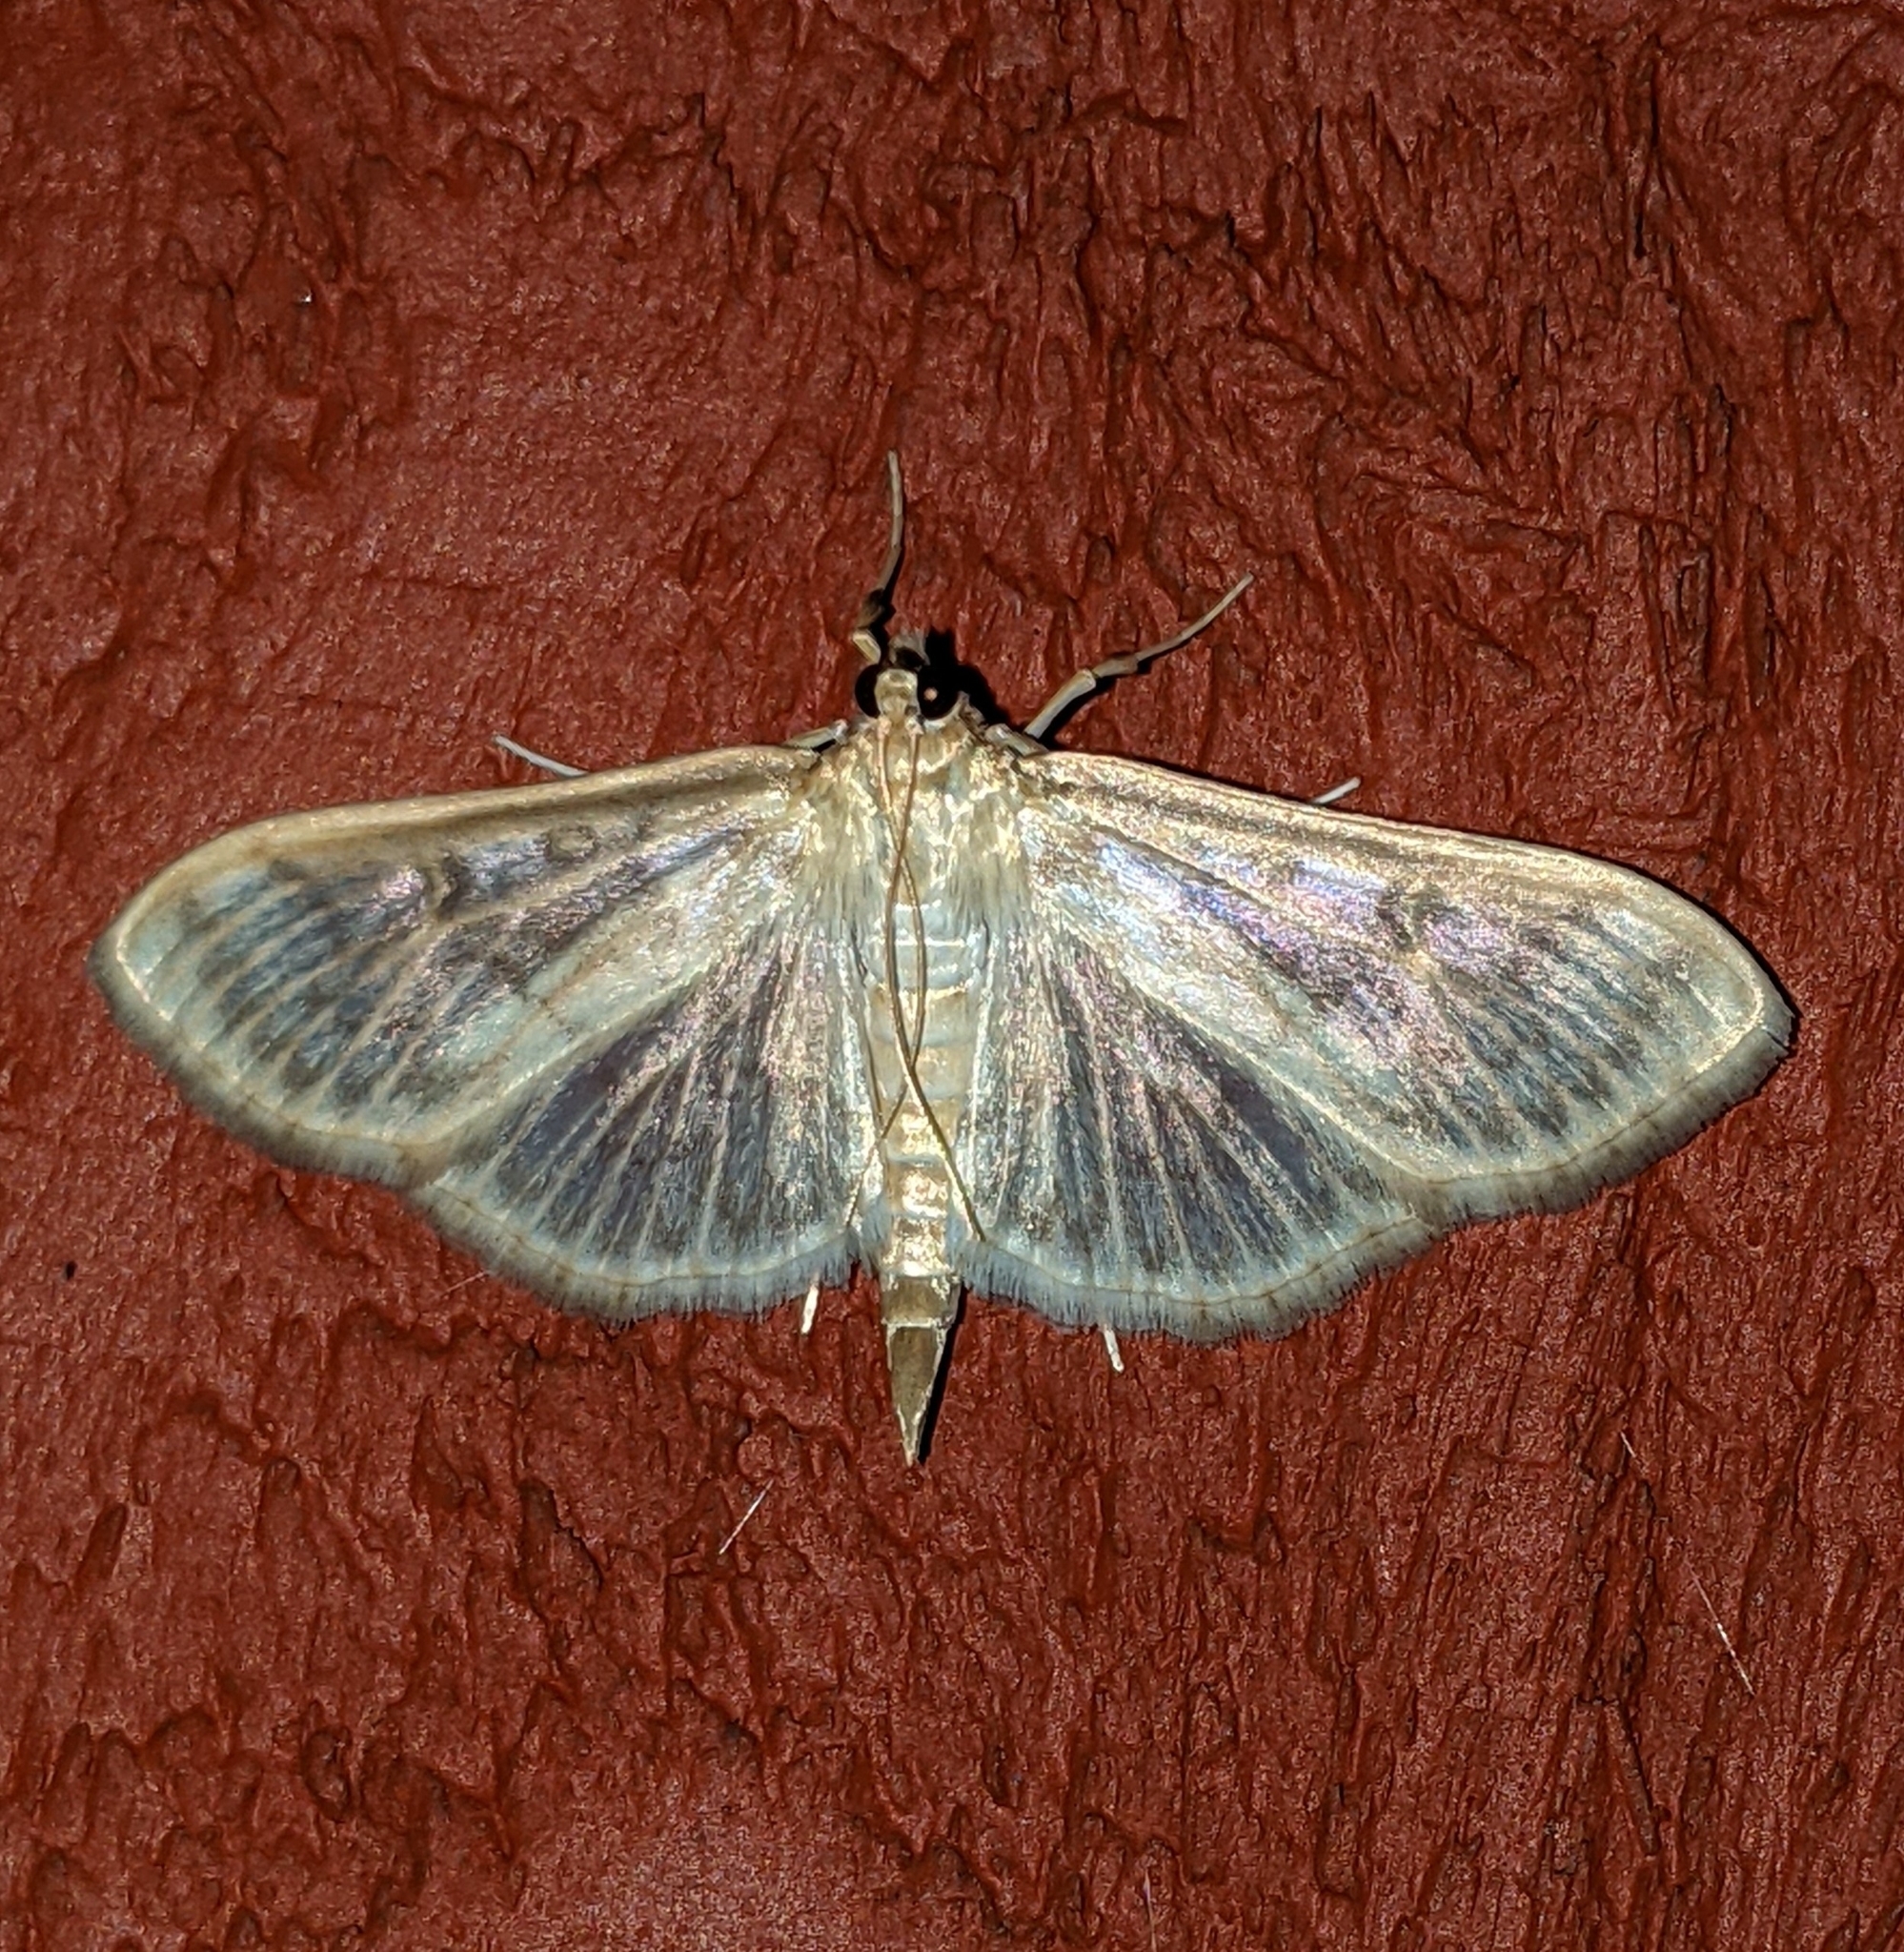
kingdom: Animalia
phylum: Arthropoda
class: Insecta
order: Lepidoptera
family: Crambidae
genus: Herpetogramma
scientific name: Herpetogramma aquilonalis
